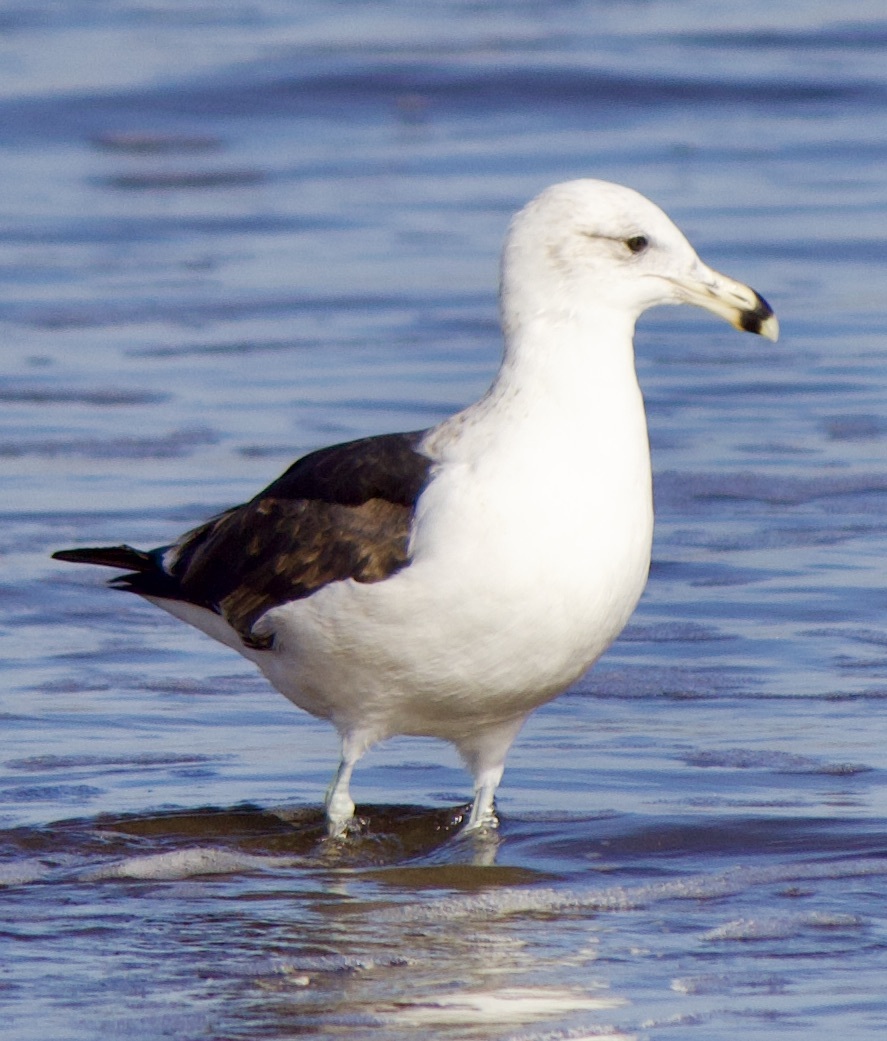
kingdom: Animalia
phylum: Chordata
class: Aves
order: Charadriiformes
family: Laridae
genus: Larus
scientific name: Larus dominicanus
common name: Kelp gull
